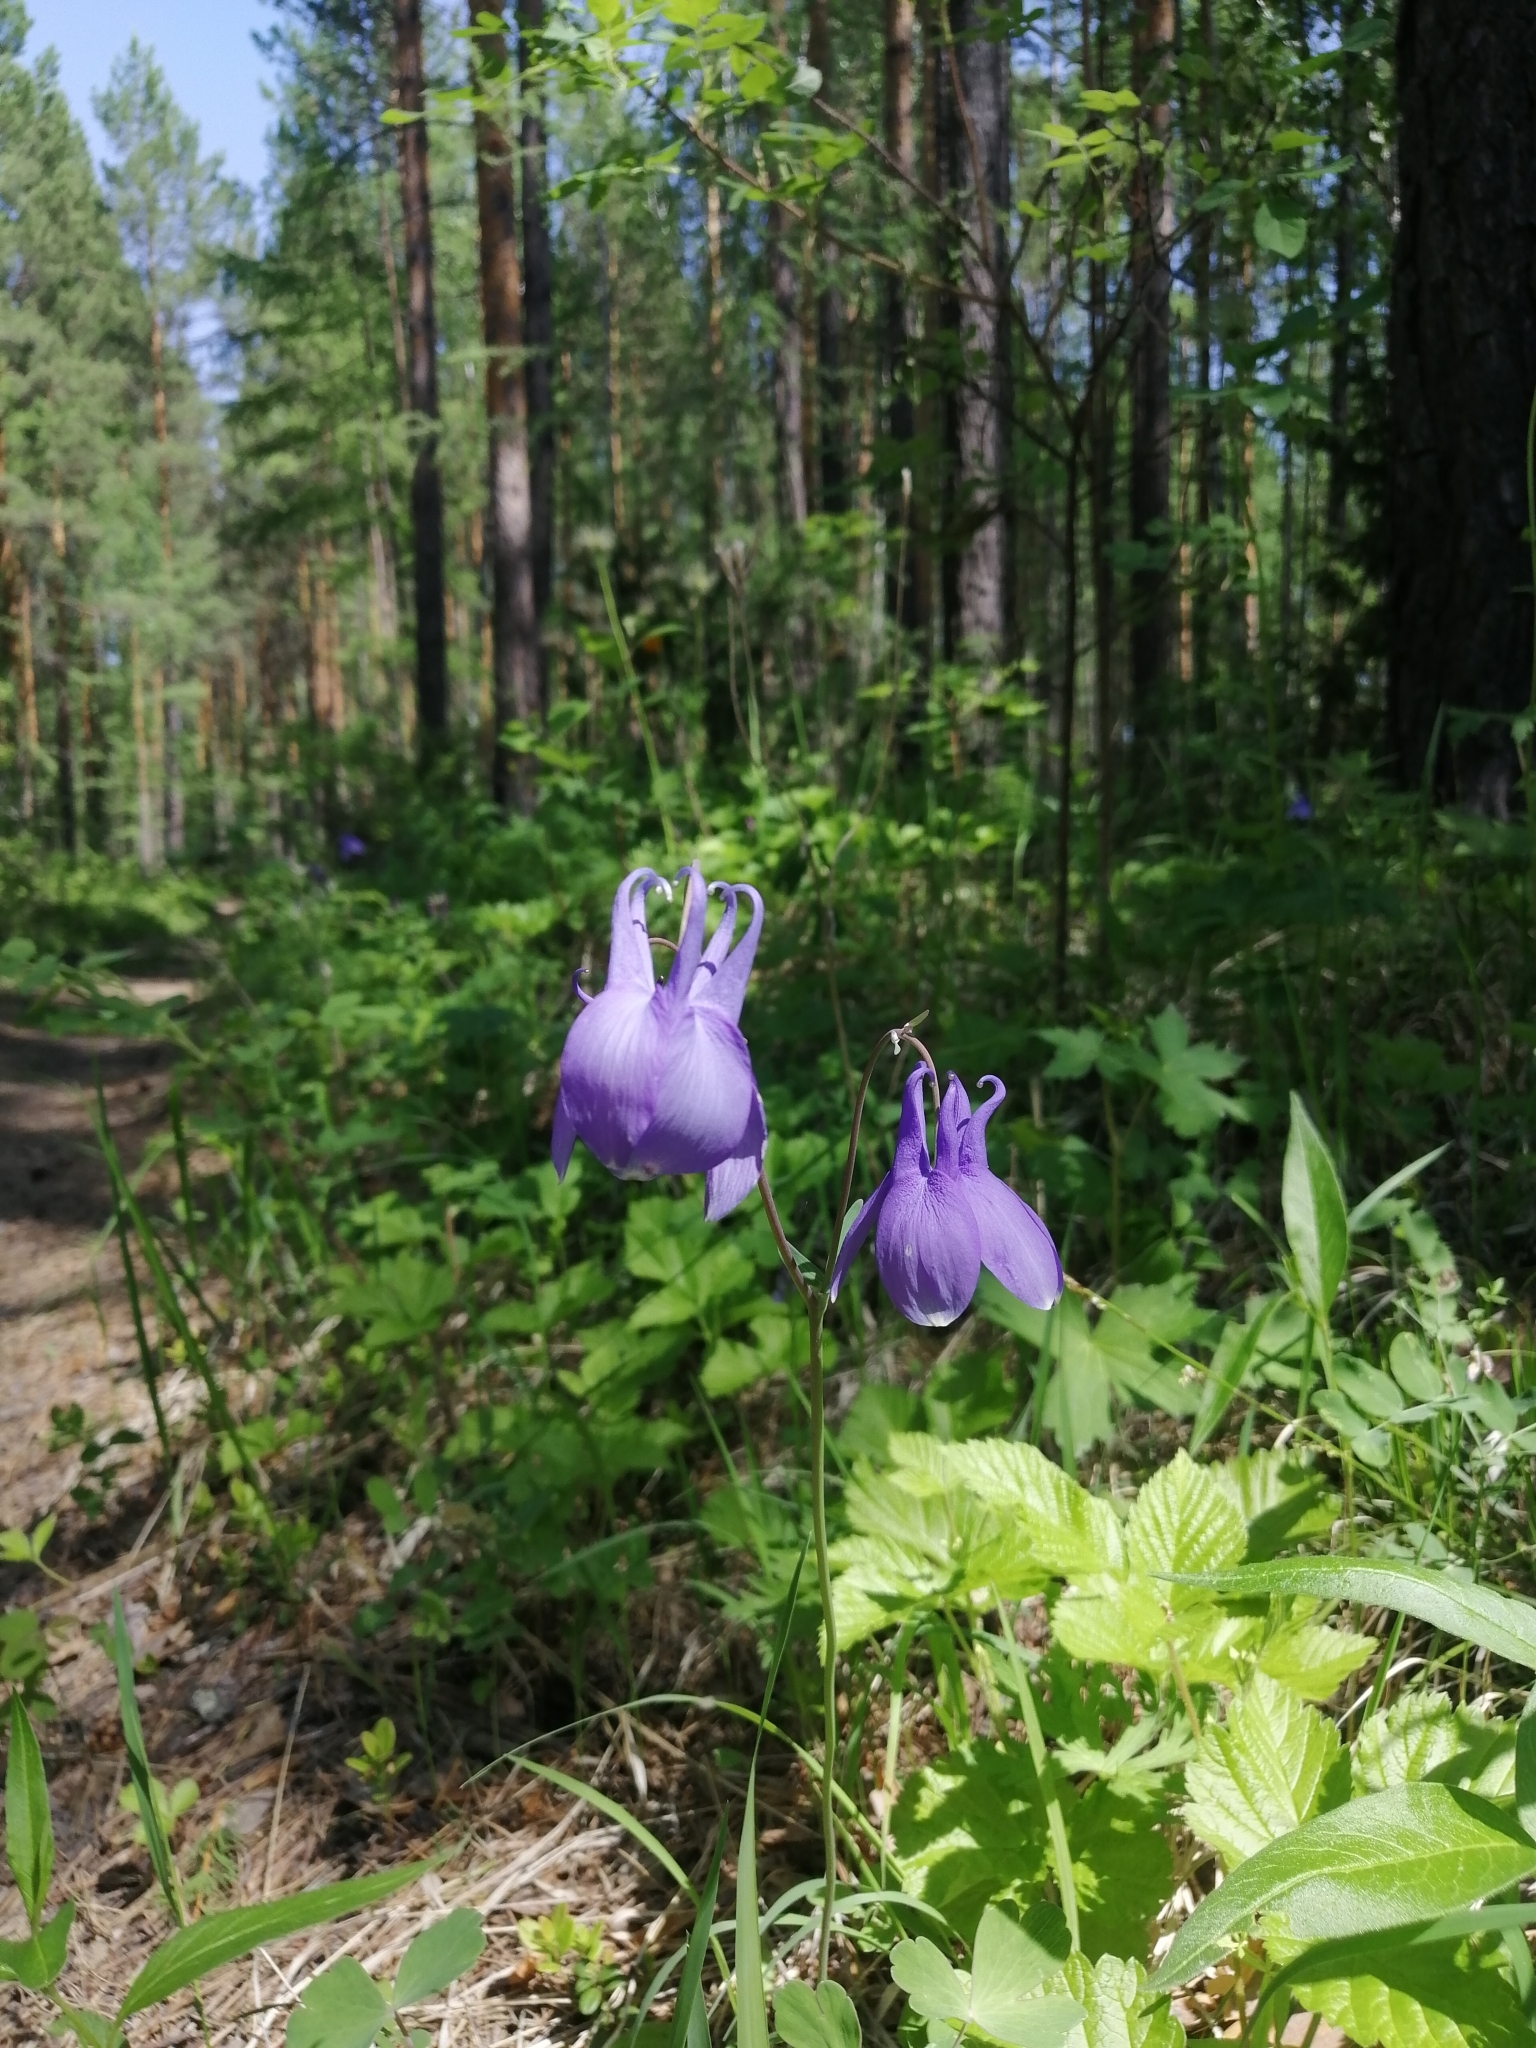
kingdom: Plantae
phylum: Tracheophyta
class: Magnoliopsida
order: Ranunculales
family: Ranunculaceae
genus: Aquilegia
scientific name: Aquilegia sibirica
